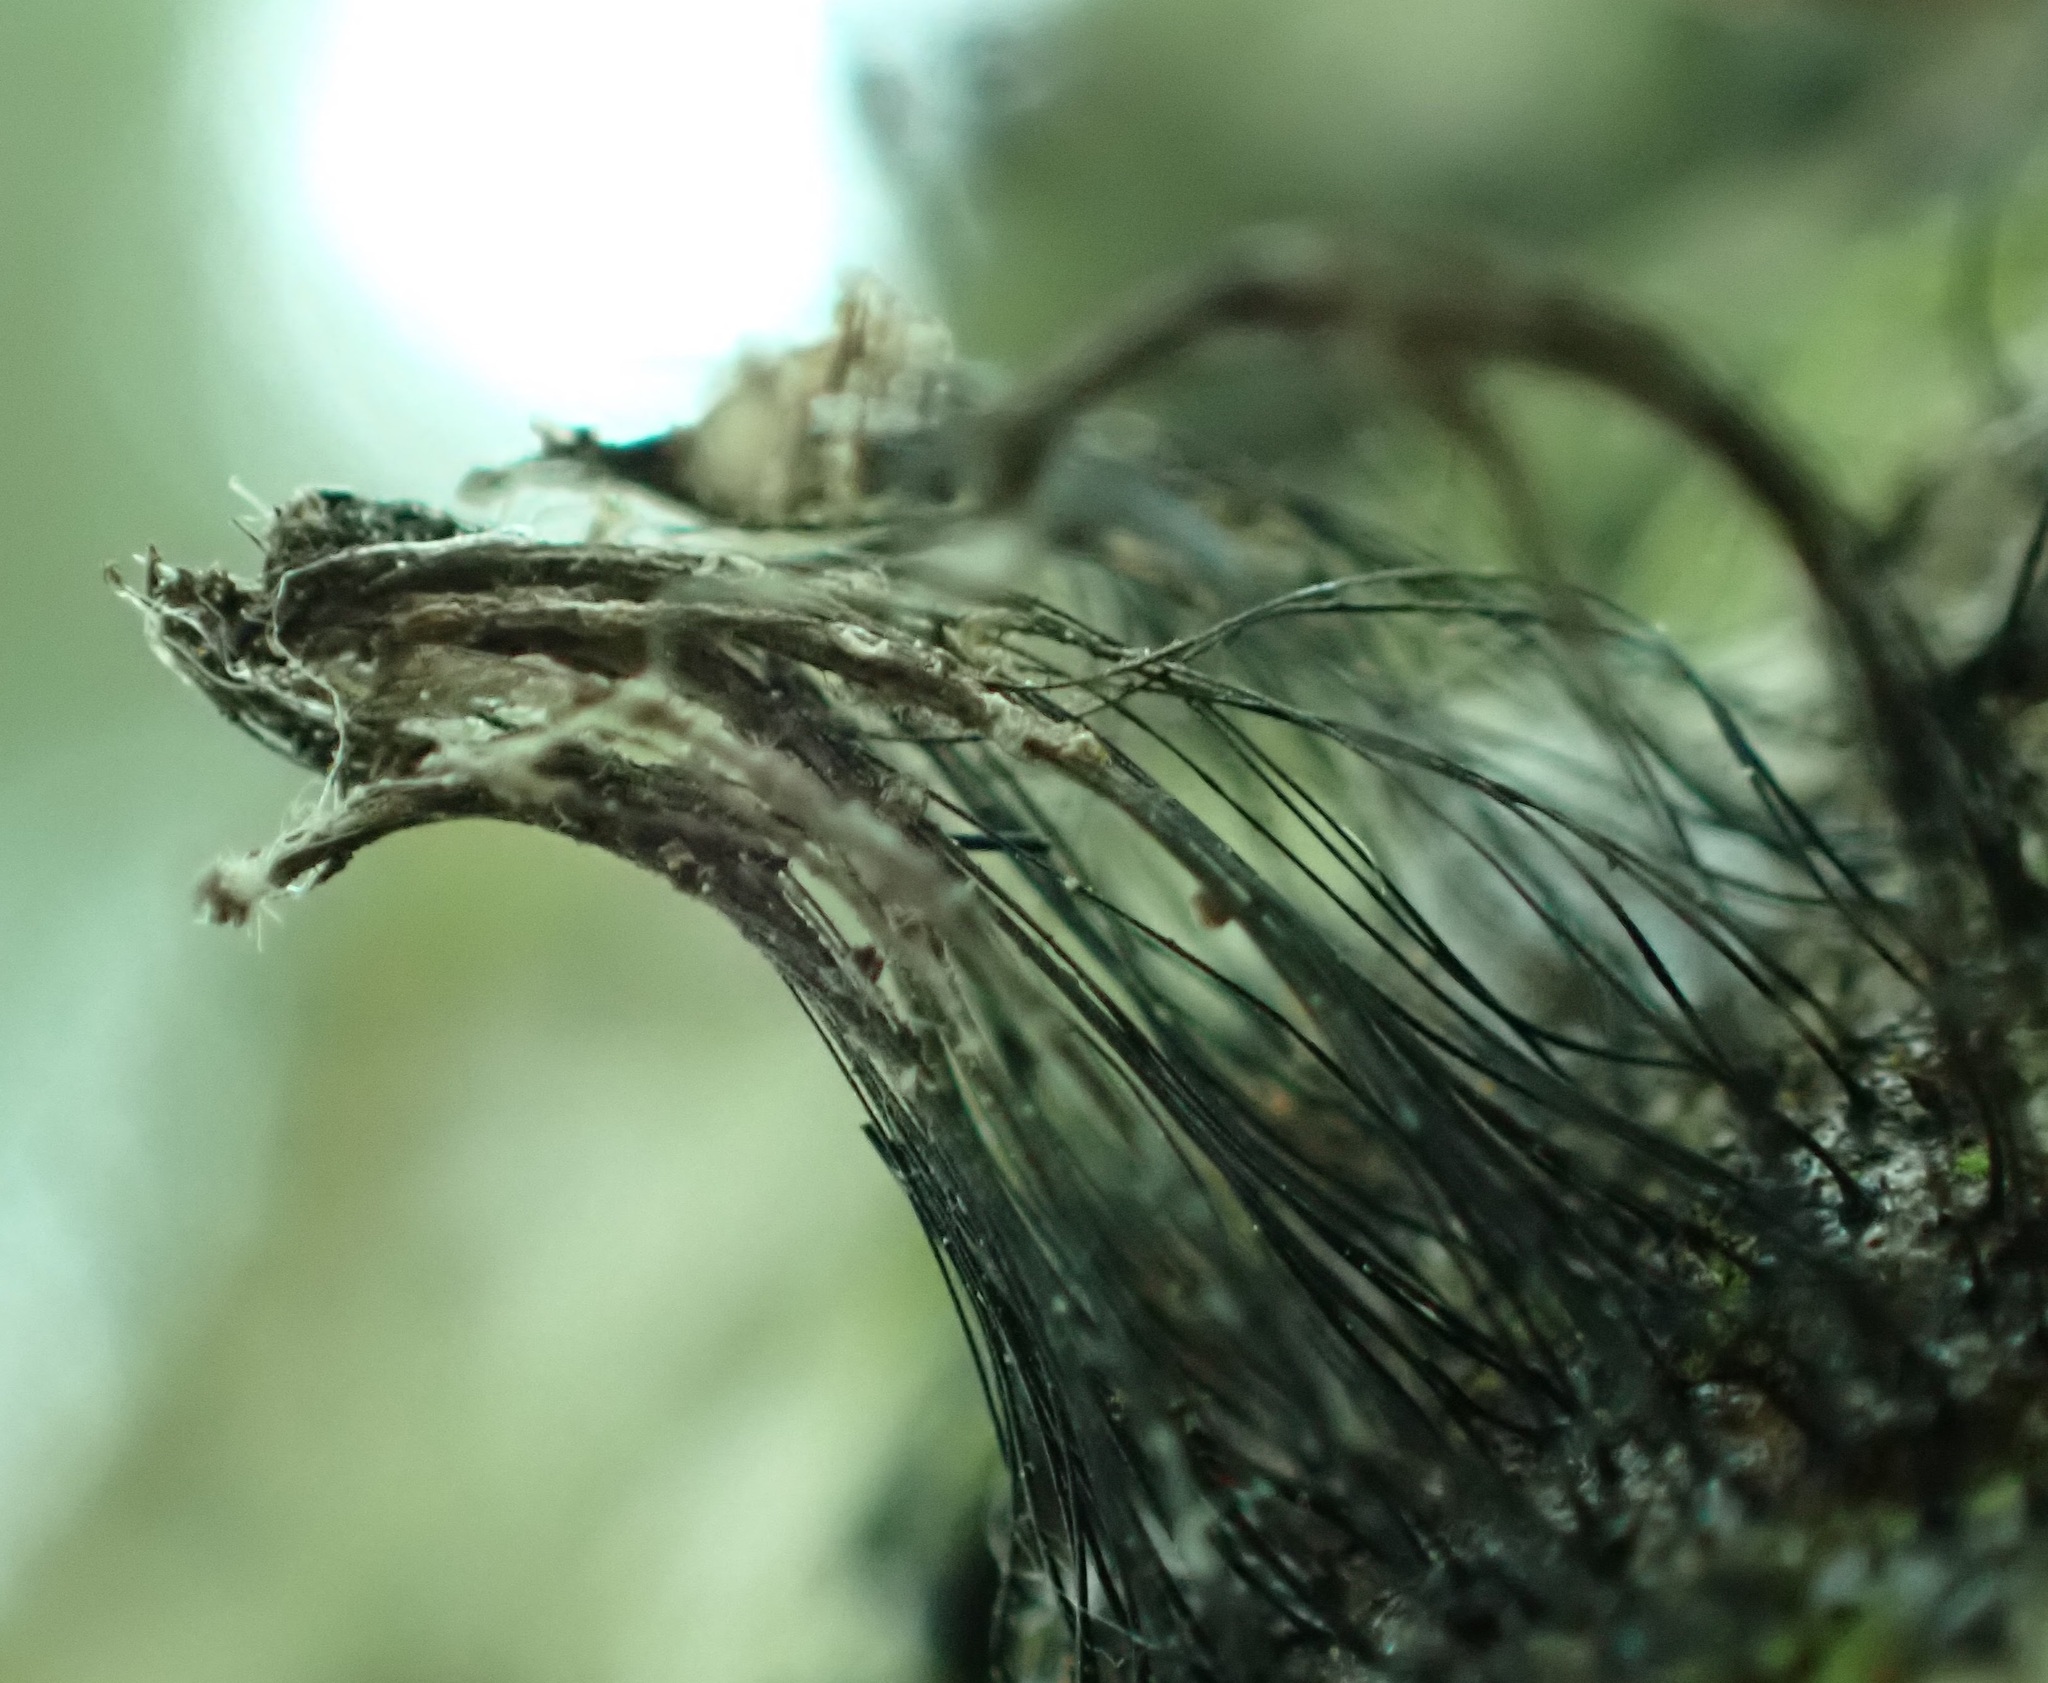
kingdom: Protozoa
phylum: Mycetozoa
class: Myxomycetes
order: Stemonitidales
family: Stemonitidaceae
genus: Stemonitis
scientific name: Stemonitis
